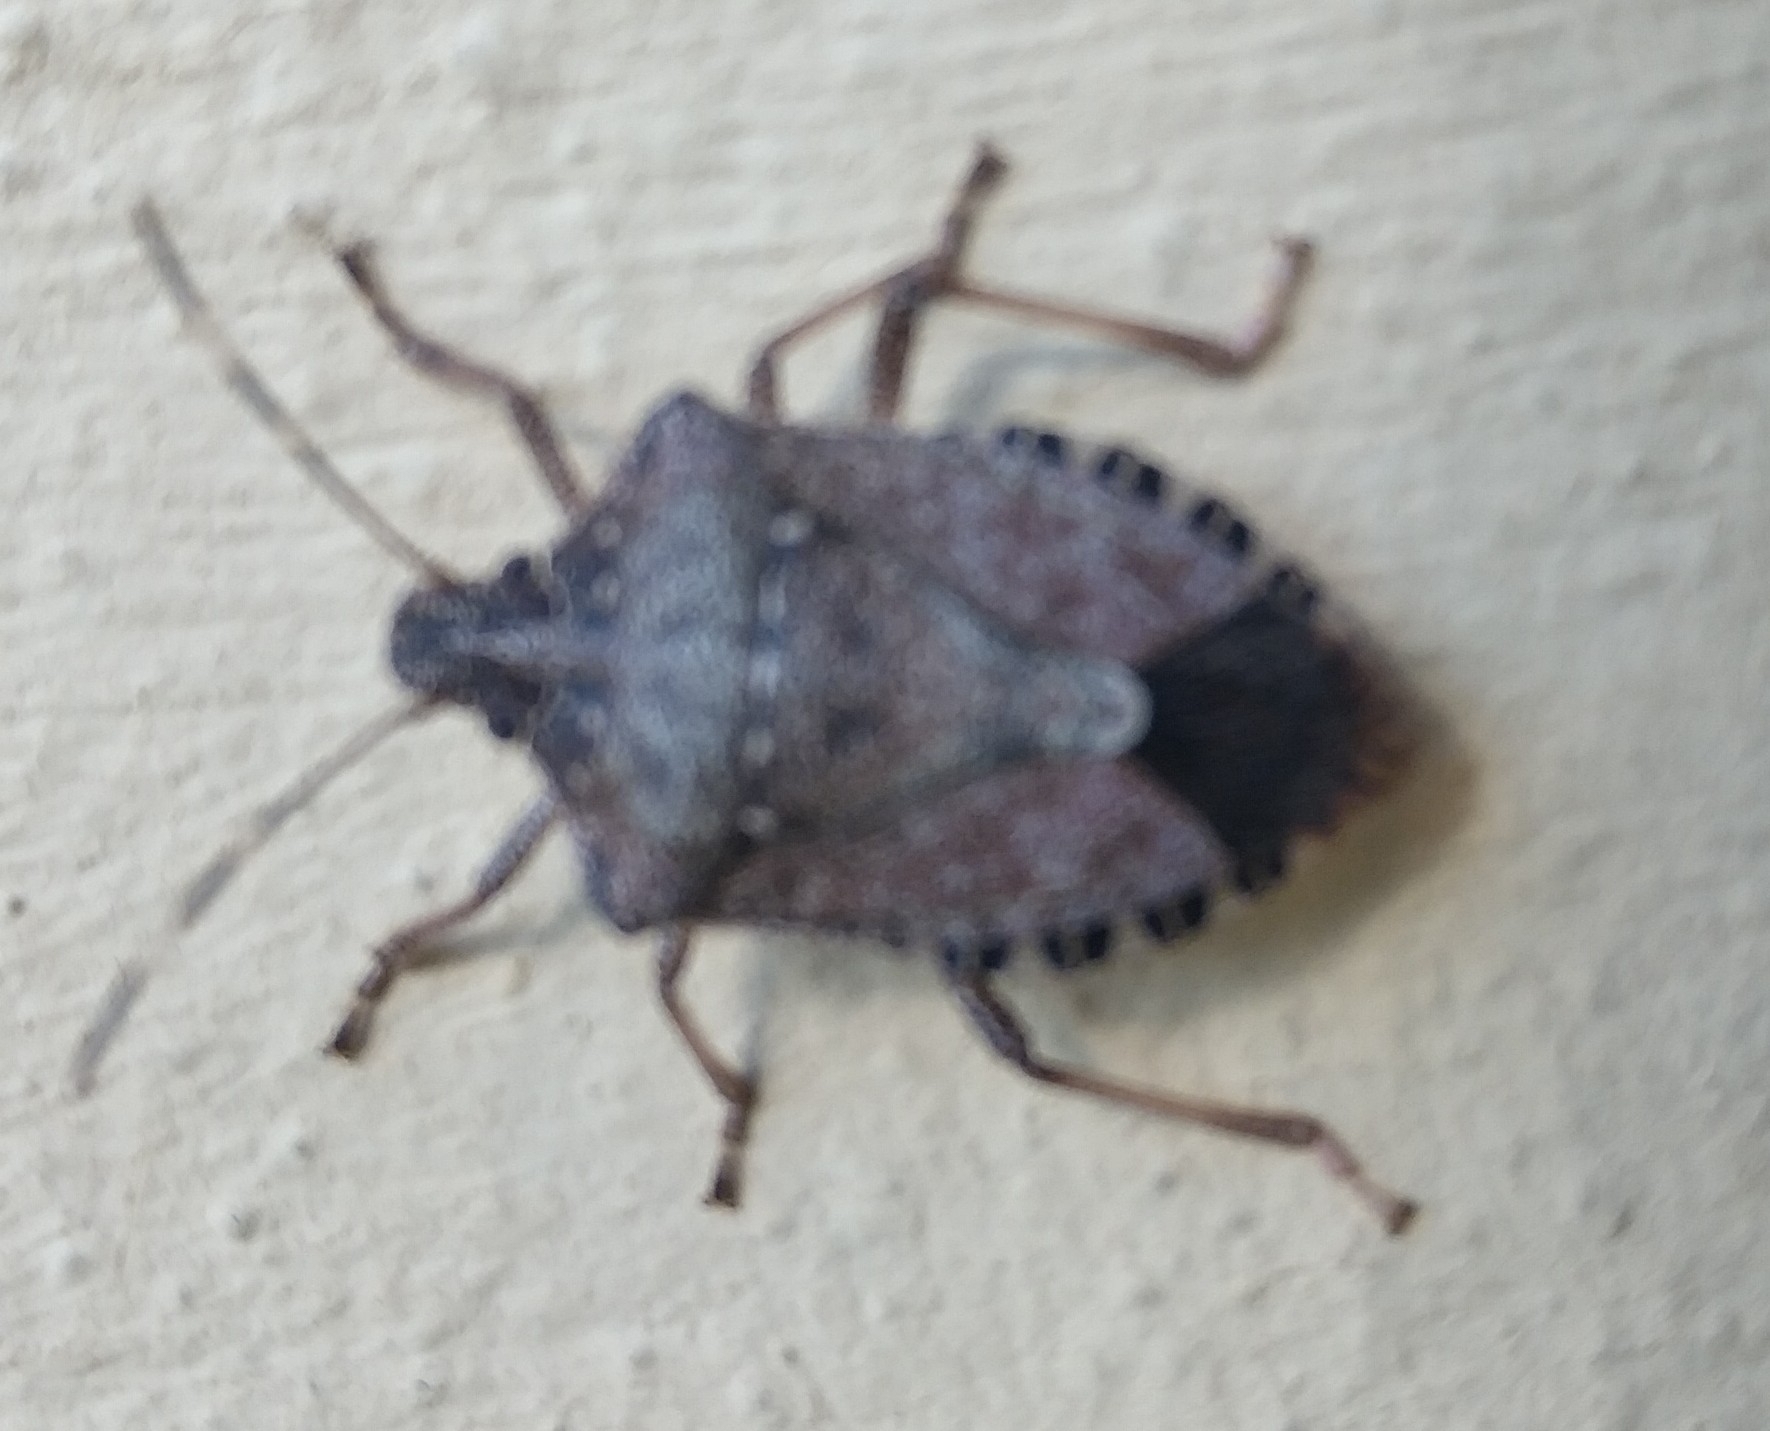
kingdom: Animalia
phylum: Arthropoda
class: Insecta
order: Hemiptera
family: Pentatomidae
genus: Halyomorpha
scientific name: Halyomorpha halys
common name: Brown marmorated stink bug
